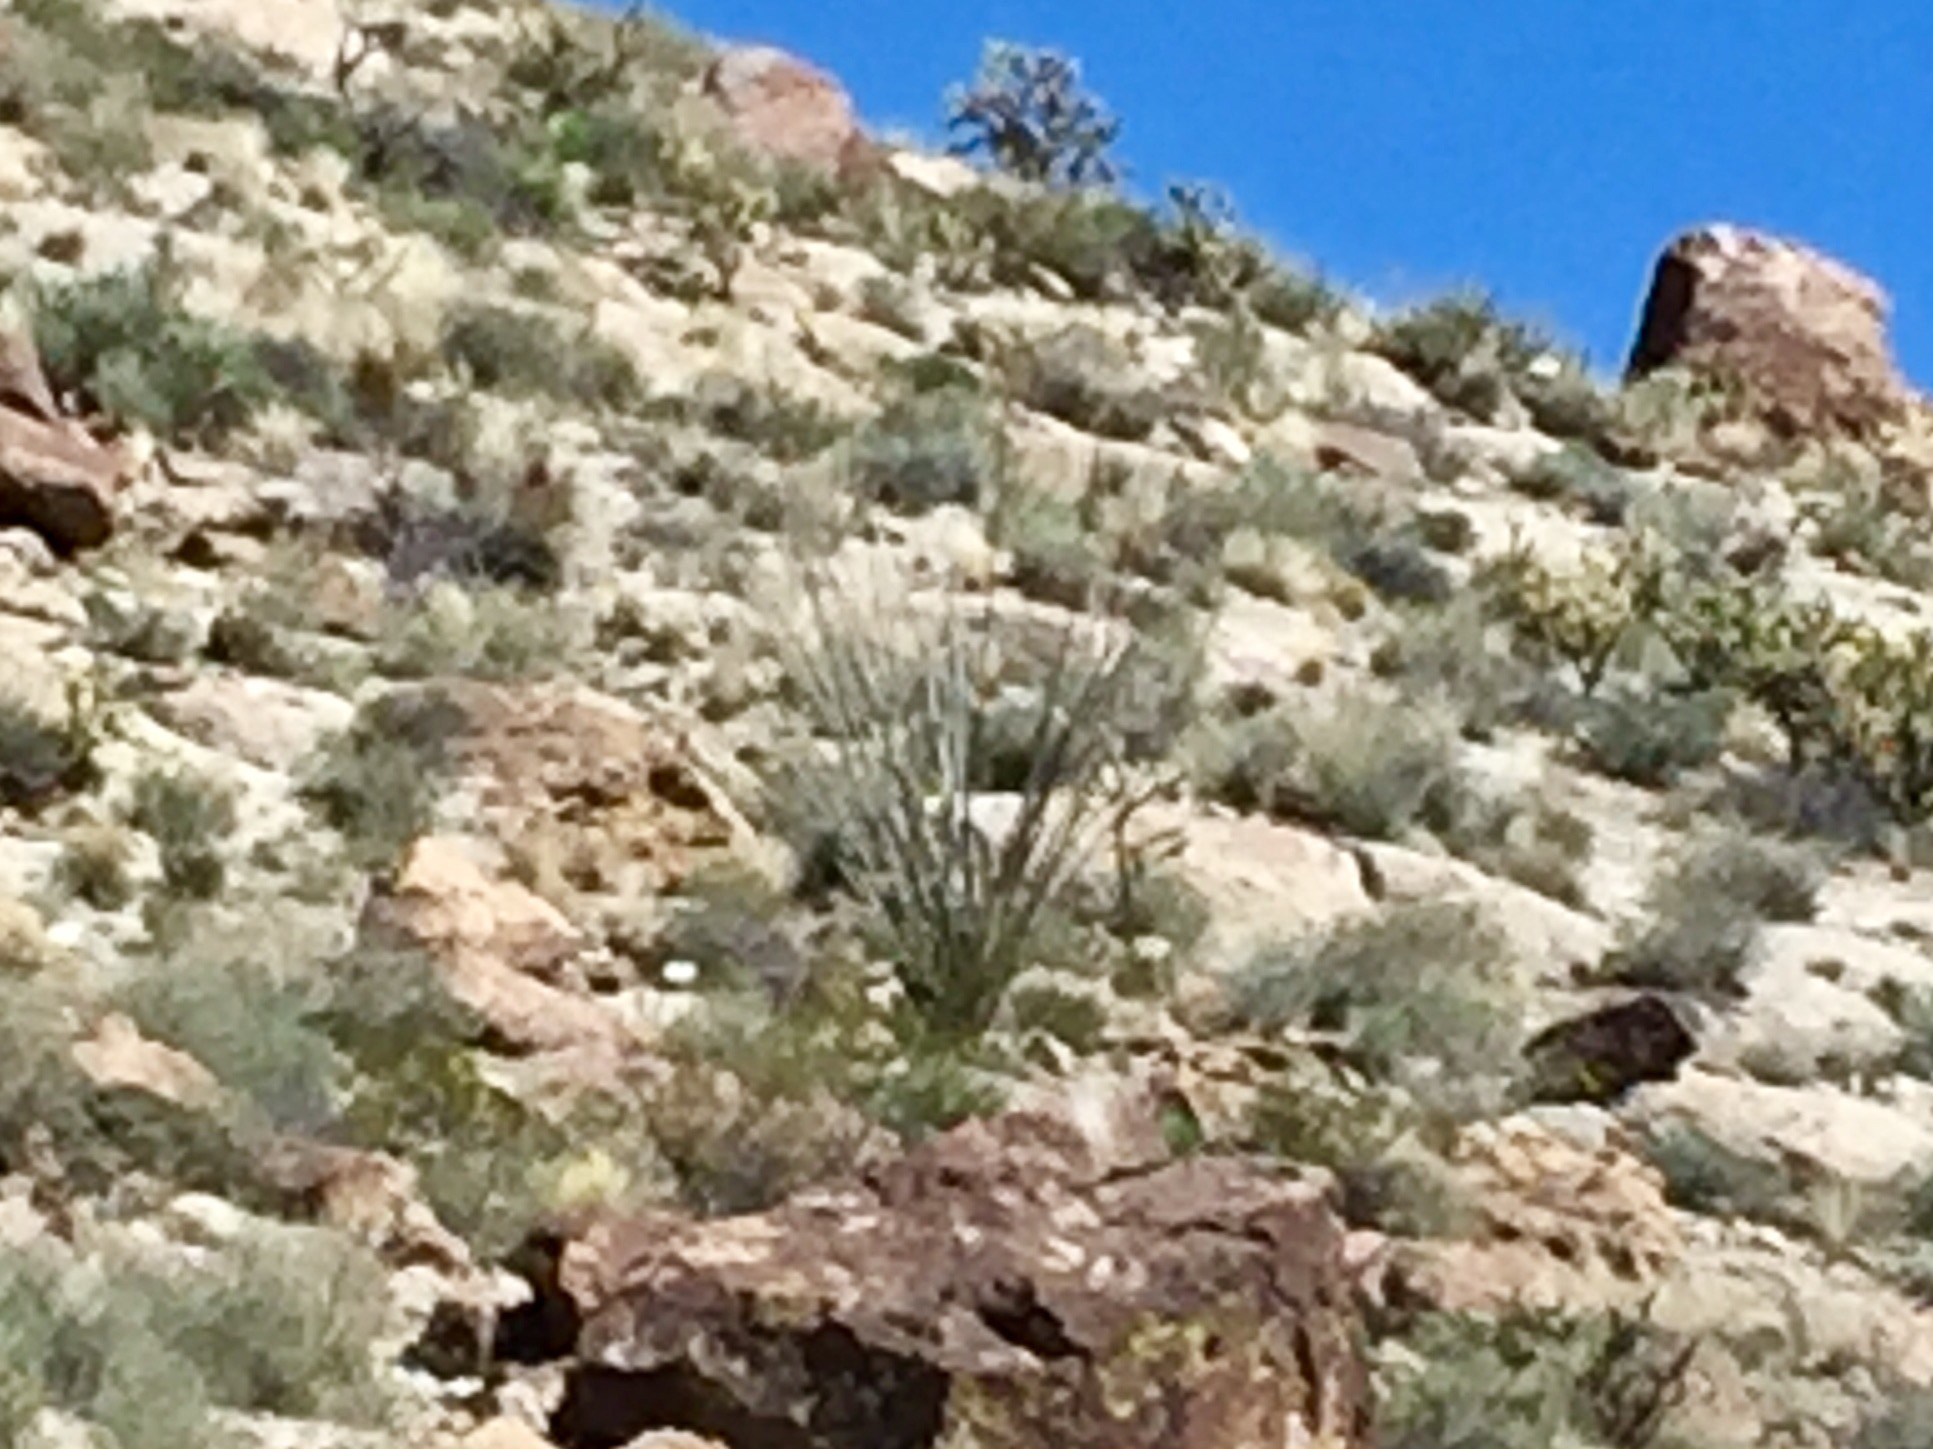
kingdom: Plantae
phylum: Tracheophyta
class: Magnoliopsida
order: Ericales
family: Fouquieriaceae
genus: Fouquieria
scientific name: Fouquieria splendens
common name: Vine-cactus
